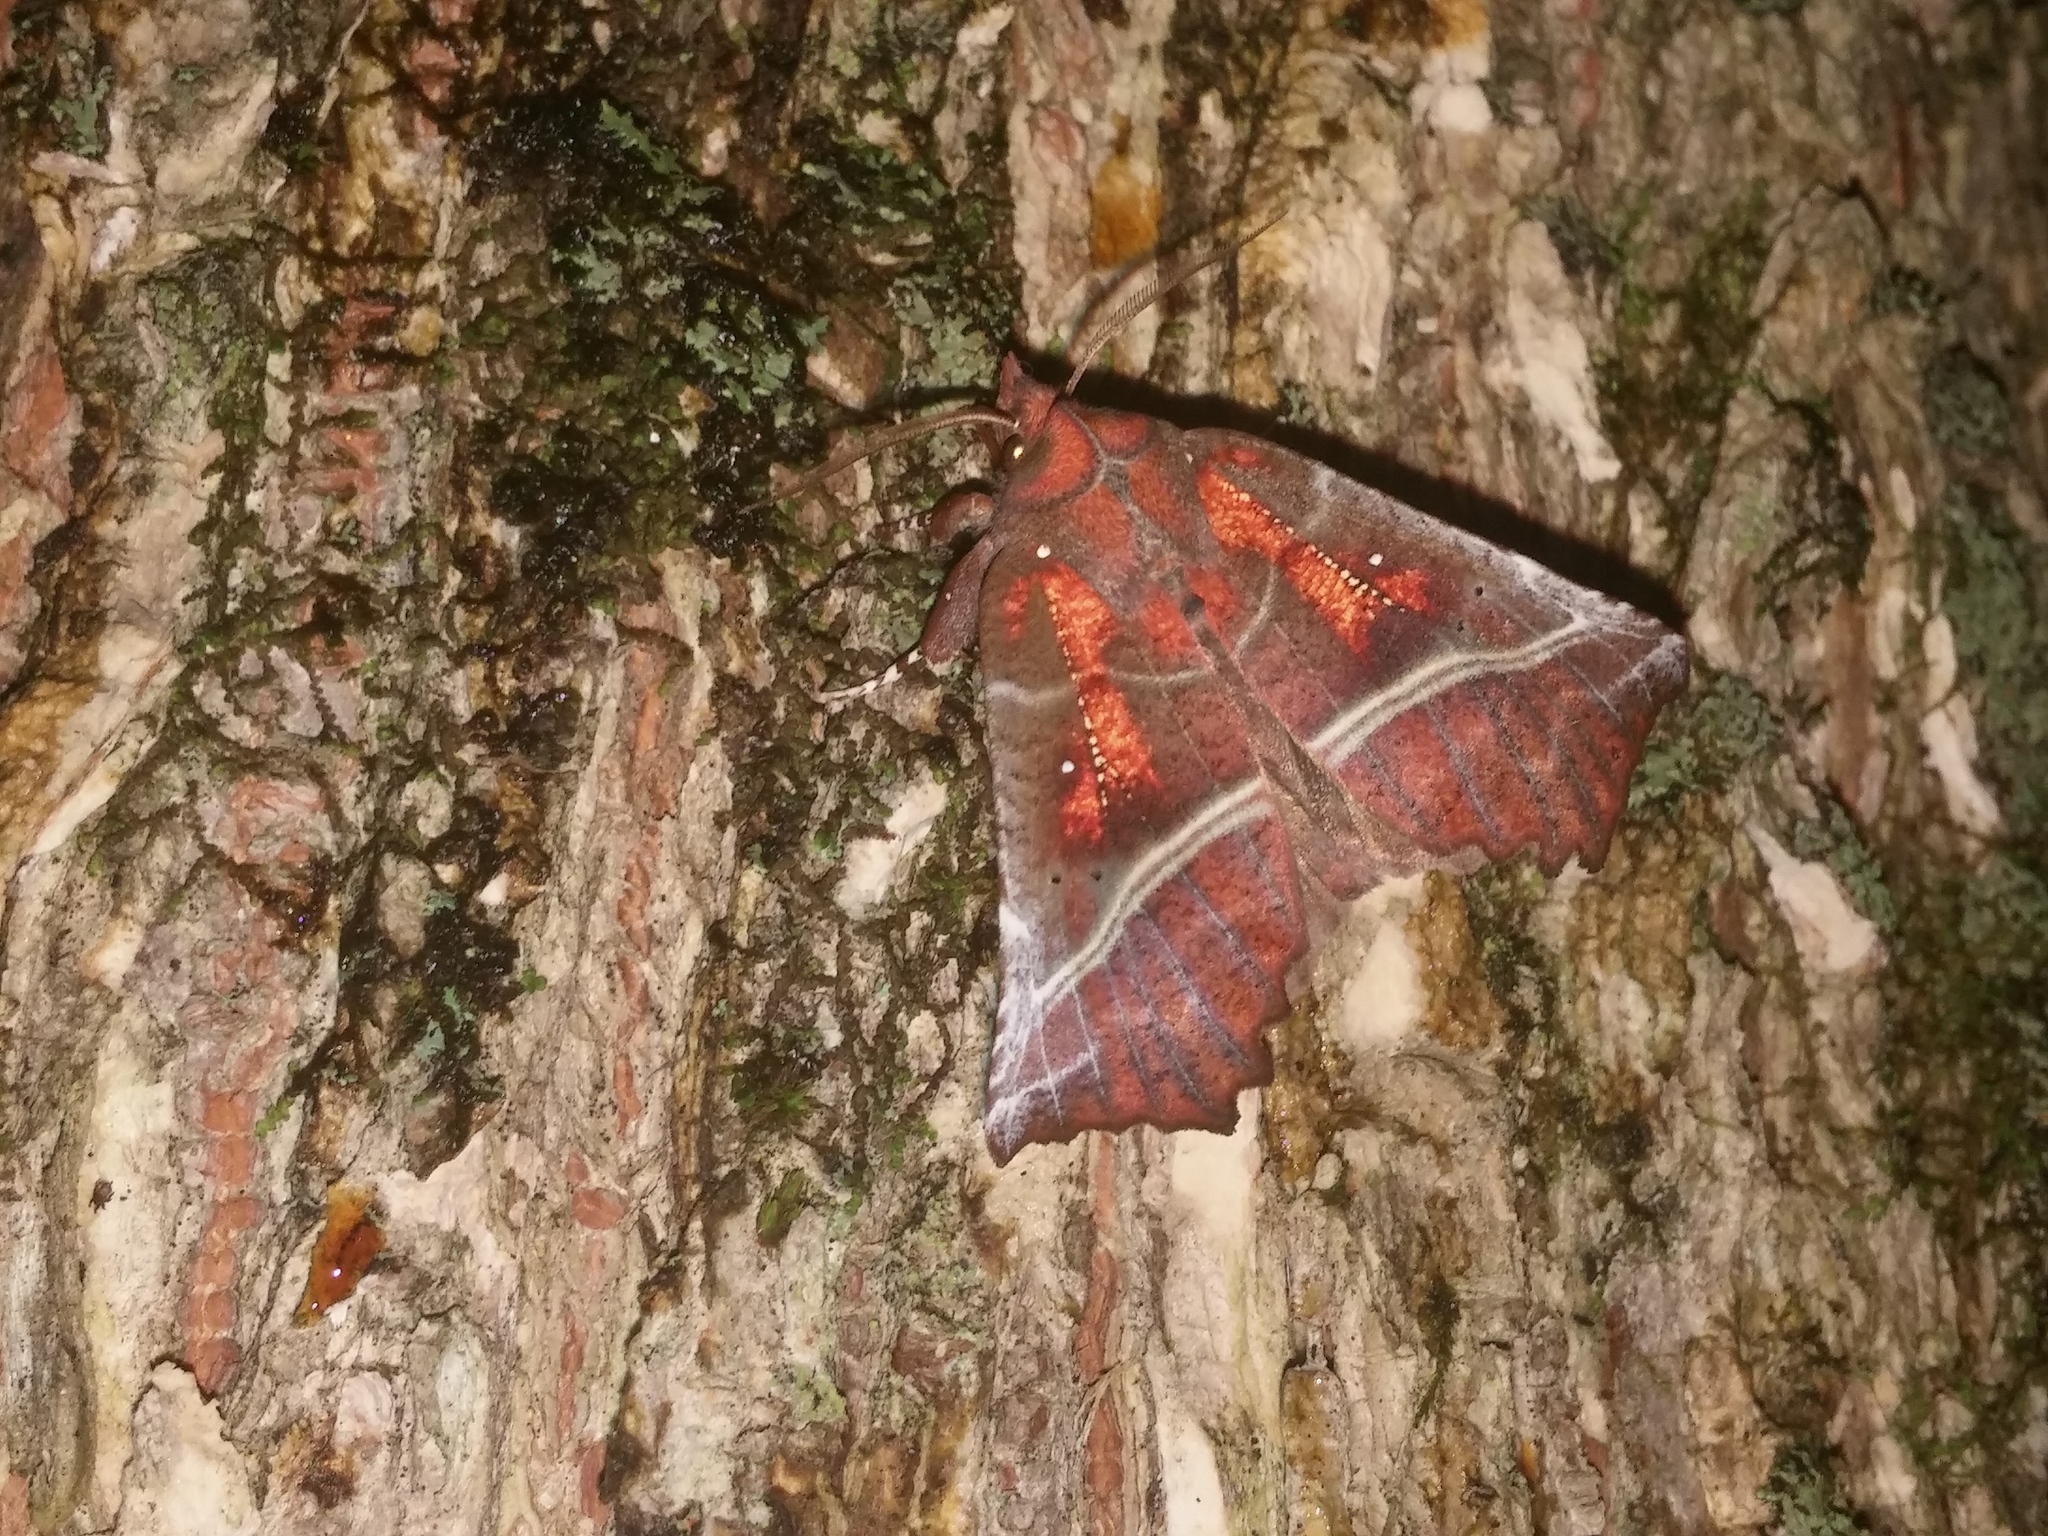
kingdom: Animalia
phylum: Arthropoda
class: Insecta
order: Lepidoptera
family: Erebidae
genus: Scoliopteryx
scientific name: Scoliopteryx libatrix
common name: Herald
